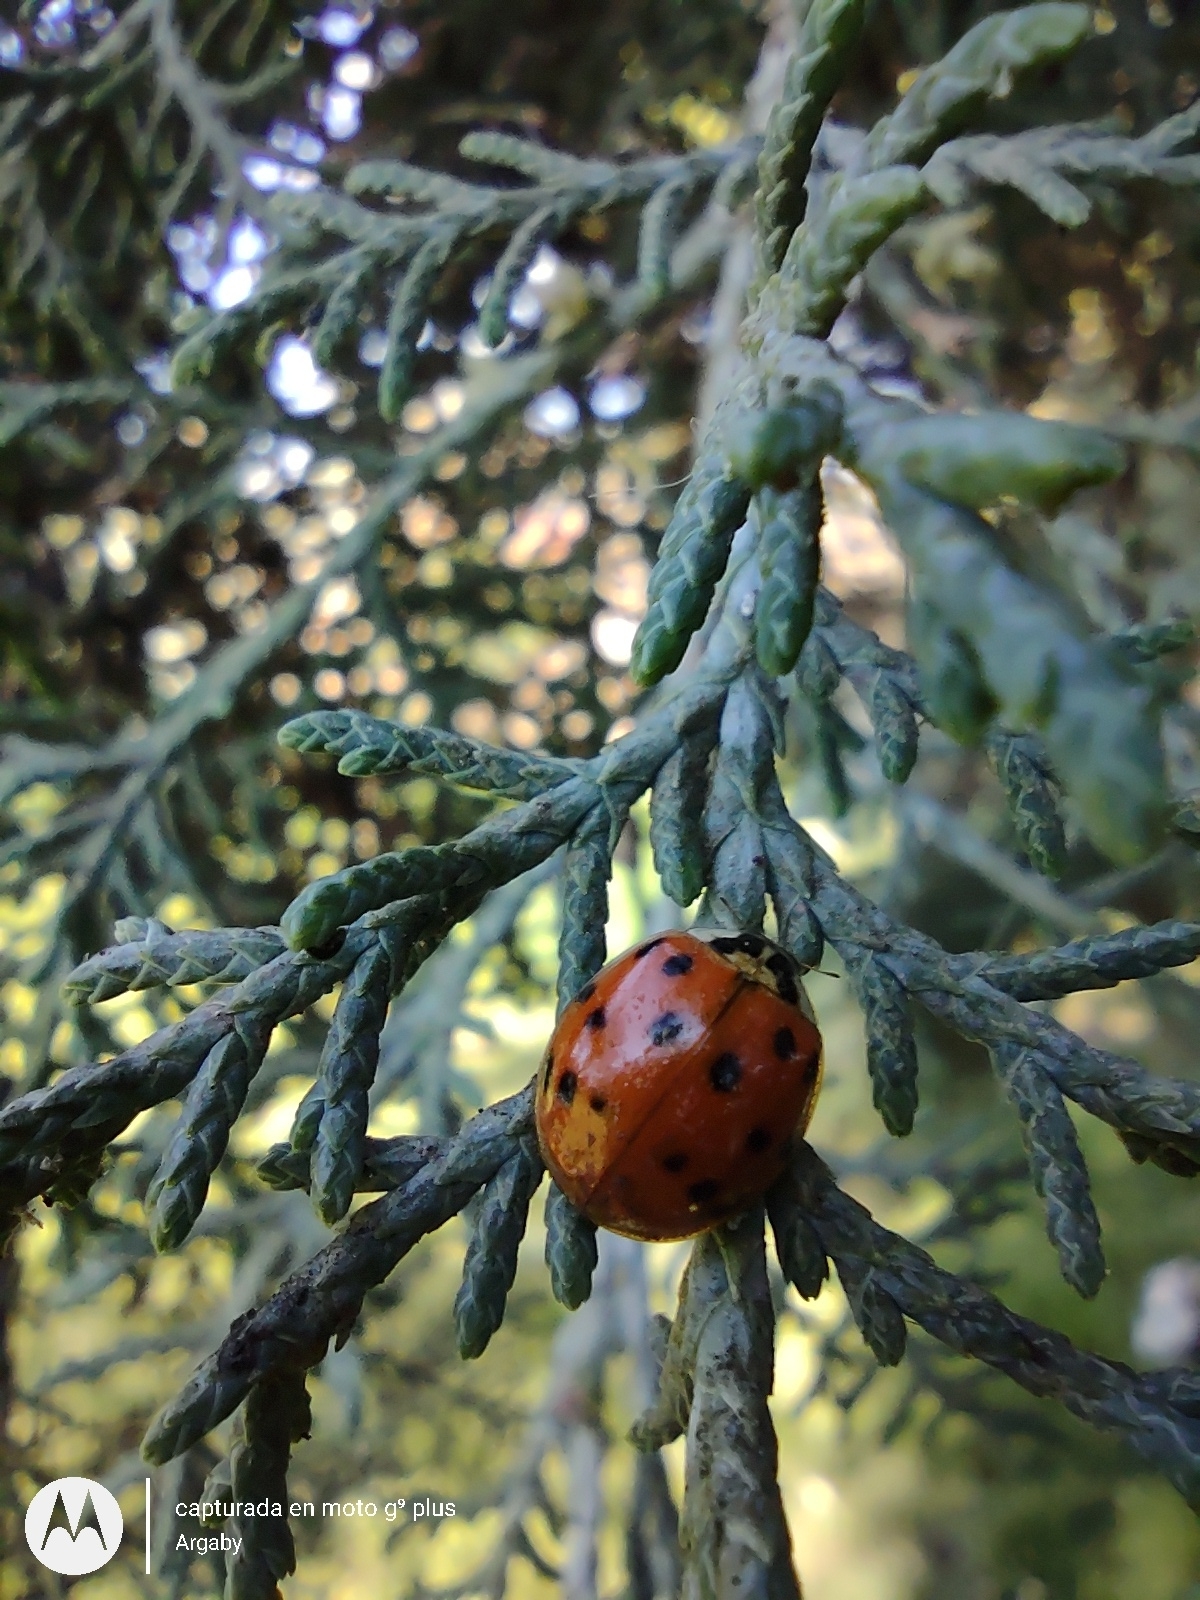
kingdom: Animalia
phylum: Arthropoda
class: Insecta
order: Coleoptera
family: Coccinellidae
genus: Harmonia
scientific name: Harmonia axyridis
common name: Harlequin ladybird
